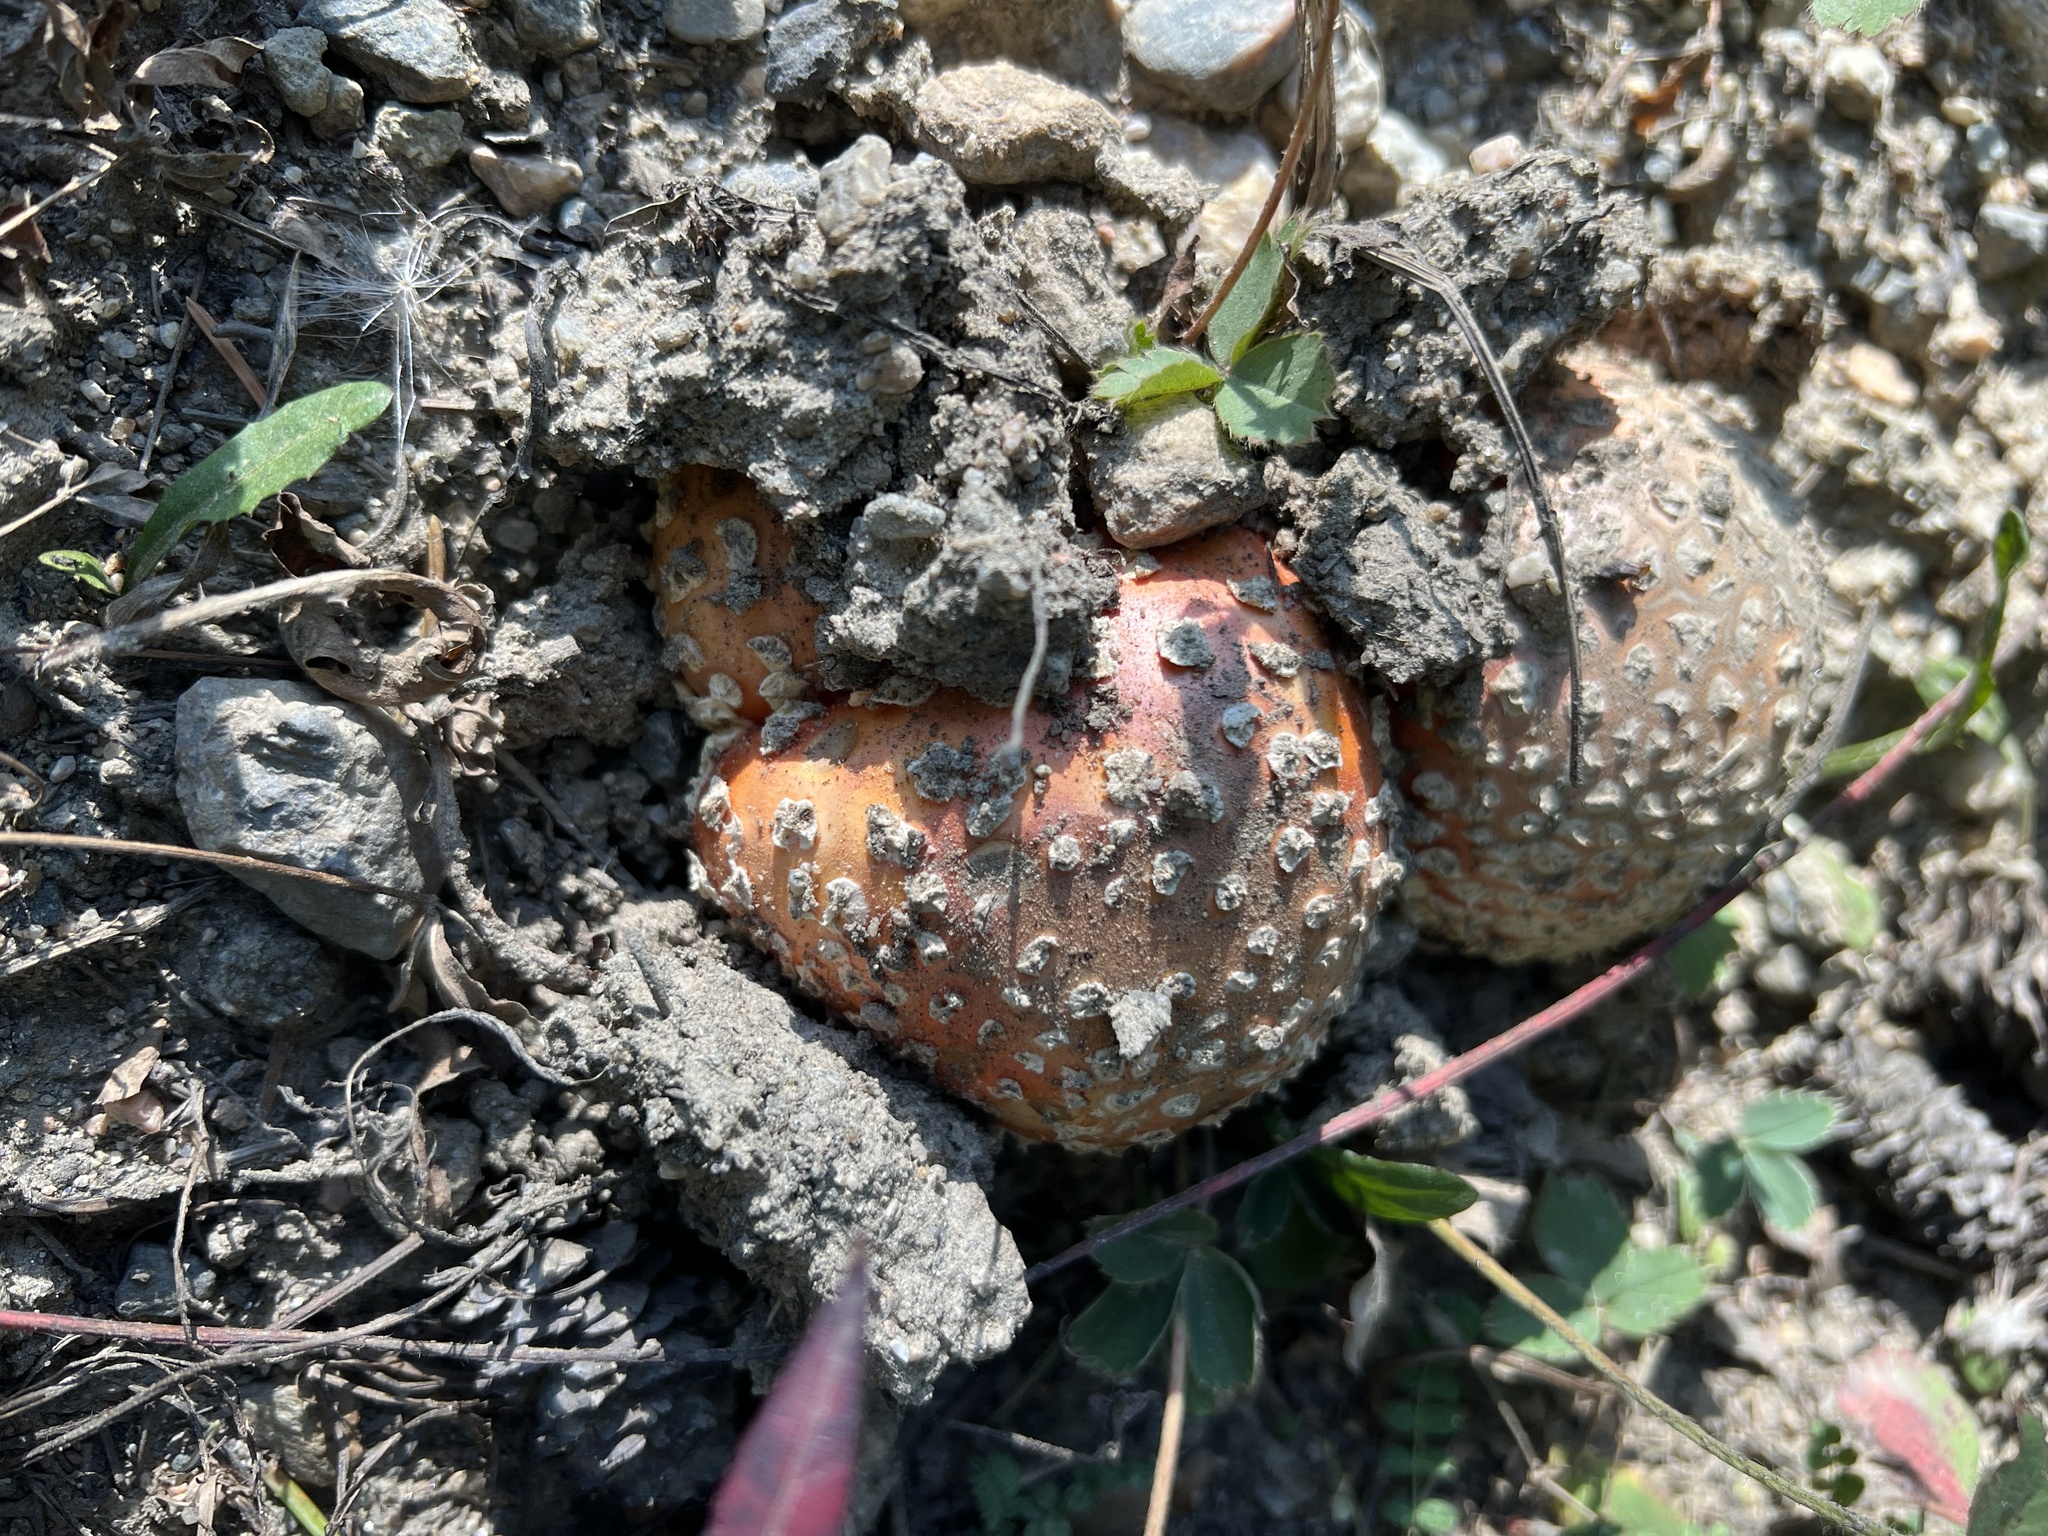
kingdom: Fungi
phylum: Basidiomycota
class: Agaricomycetes
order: Agaricales
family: Amanitaceae
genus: Amanita
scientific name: Amanita muscaria
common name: Fly agaric
